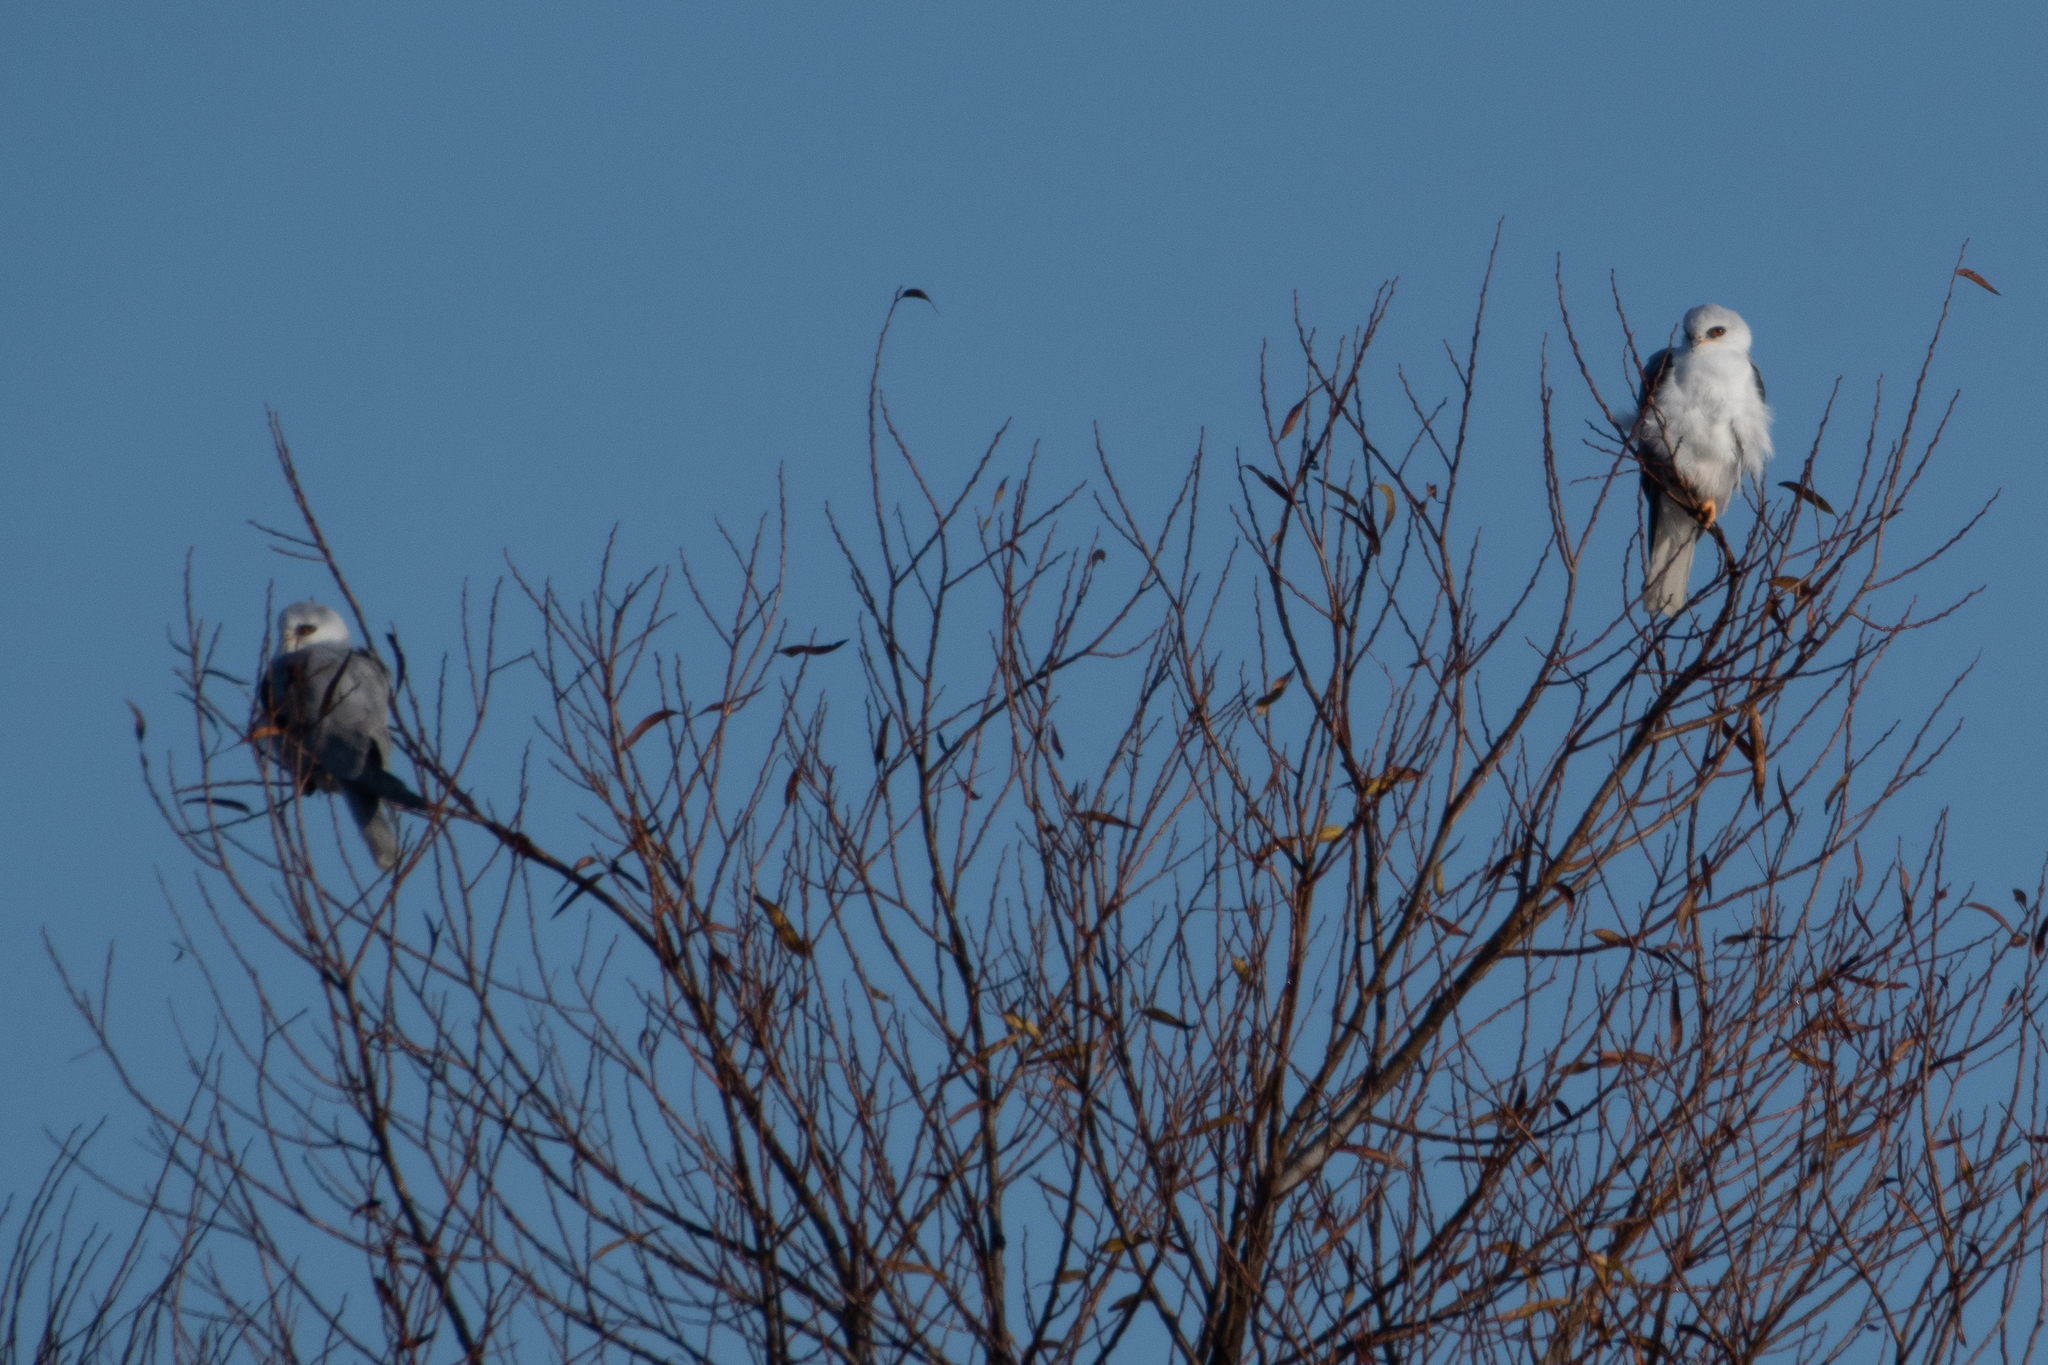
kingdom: Animalia
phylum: Chordata
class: Aves
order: Accipitriformes
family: Accipitridae
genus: Elanus
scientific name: Elanus leucurus
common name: White-tailed kite
